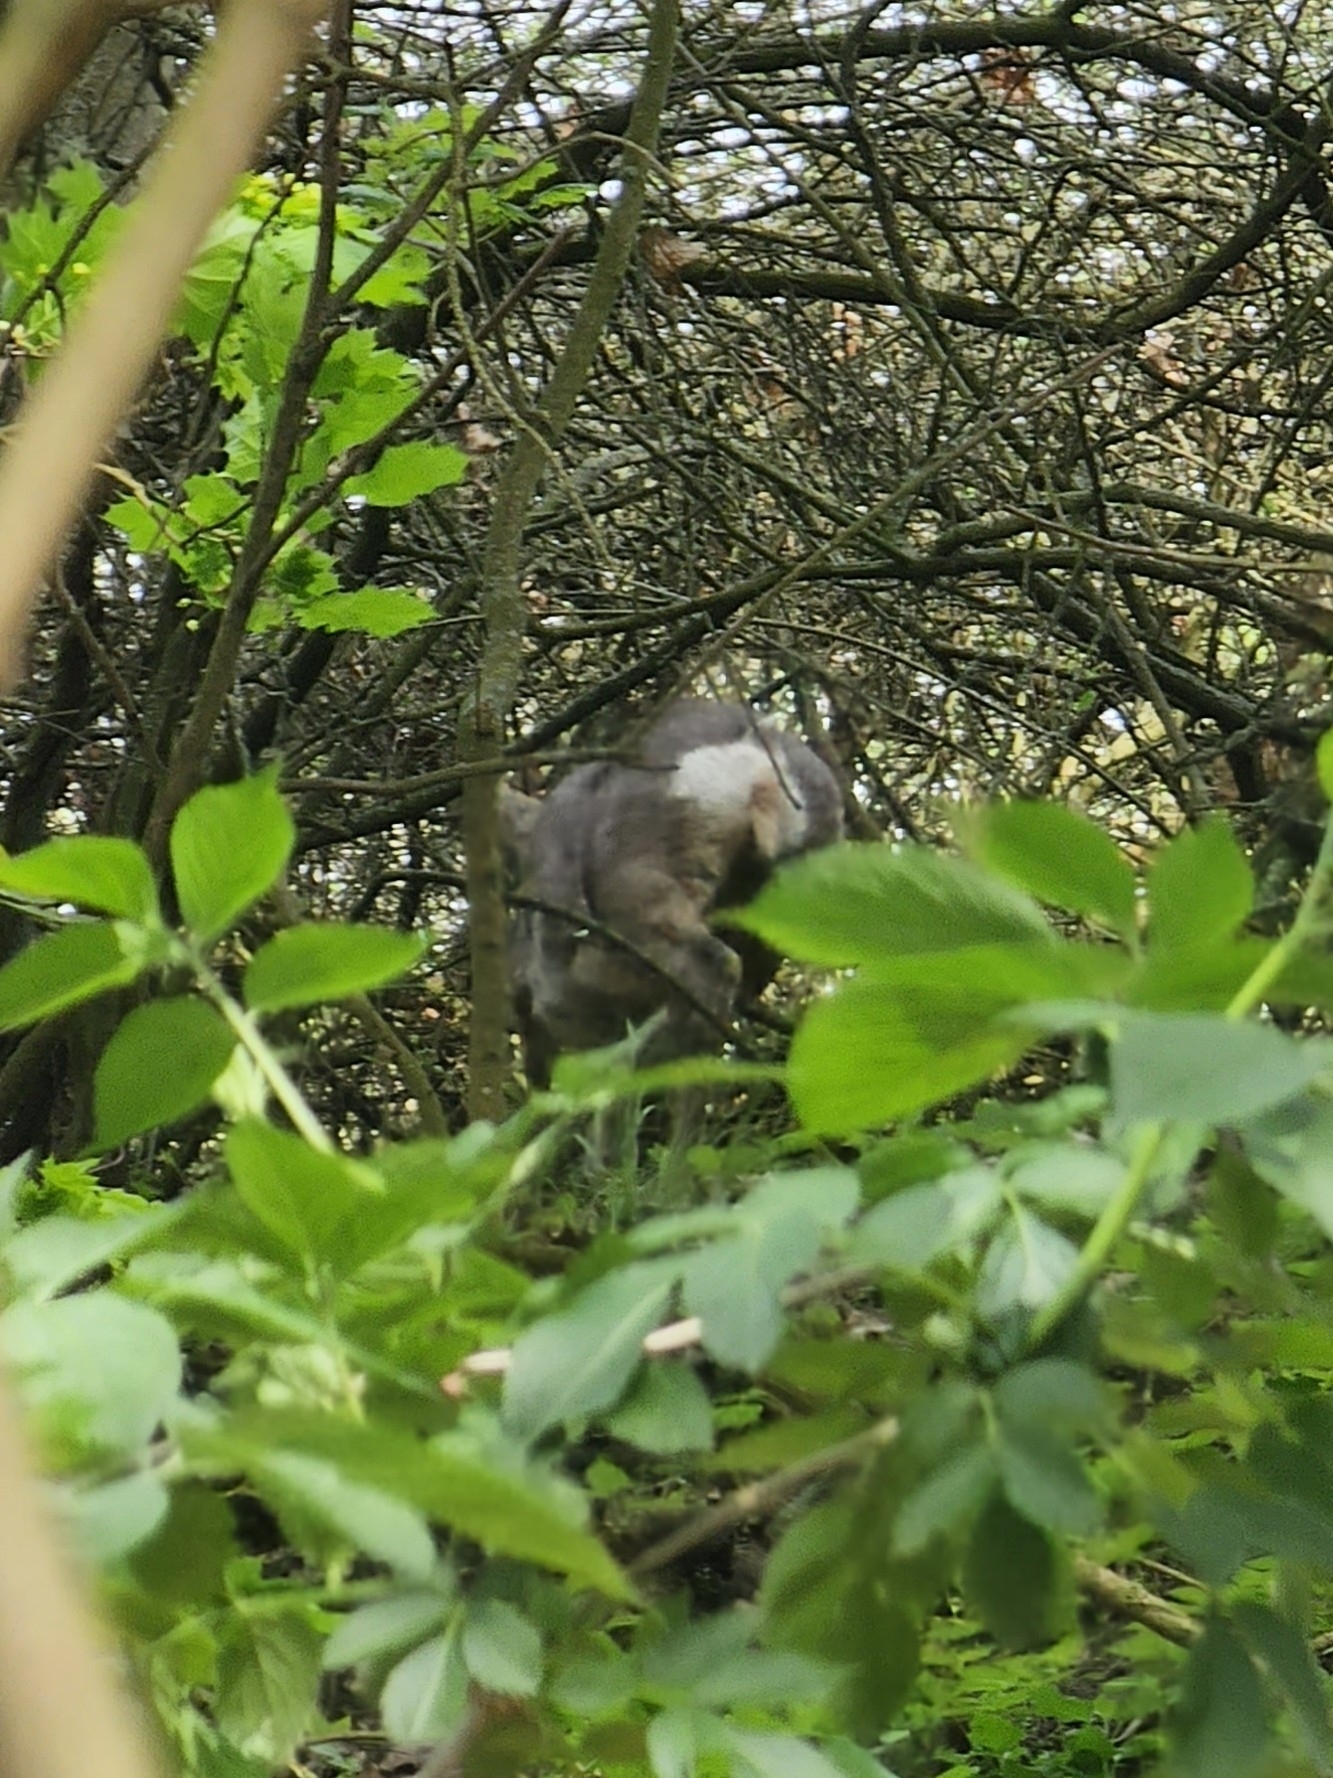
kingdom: Animalia
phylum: Chordata
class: Mammalia
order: Artiodactyla
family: Cervidae
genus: Capreolus
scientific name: Capreolus capreolus
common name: Western roe deer
